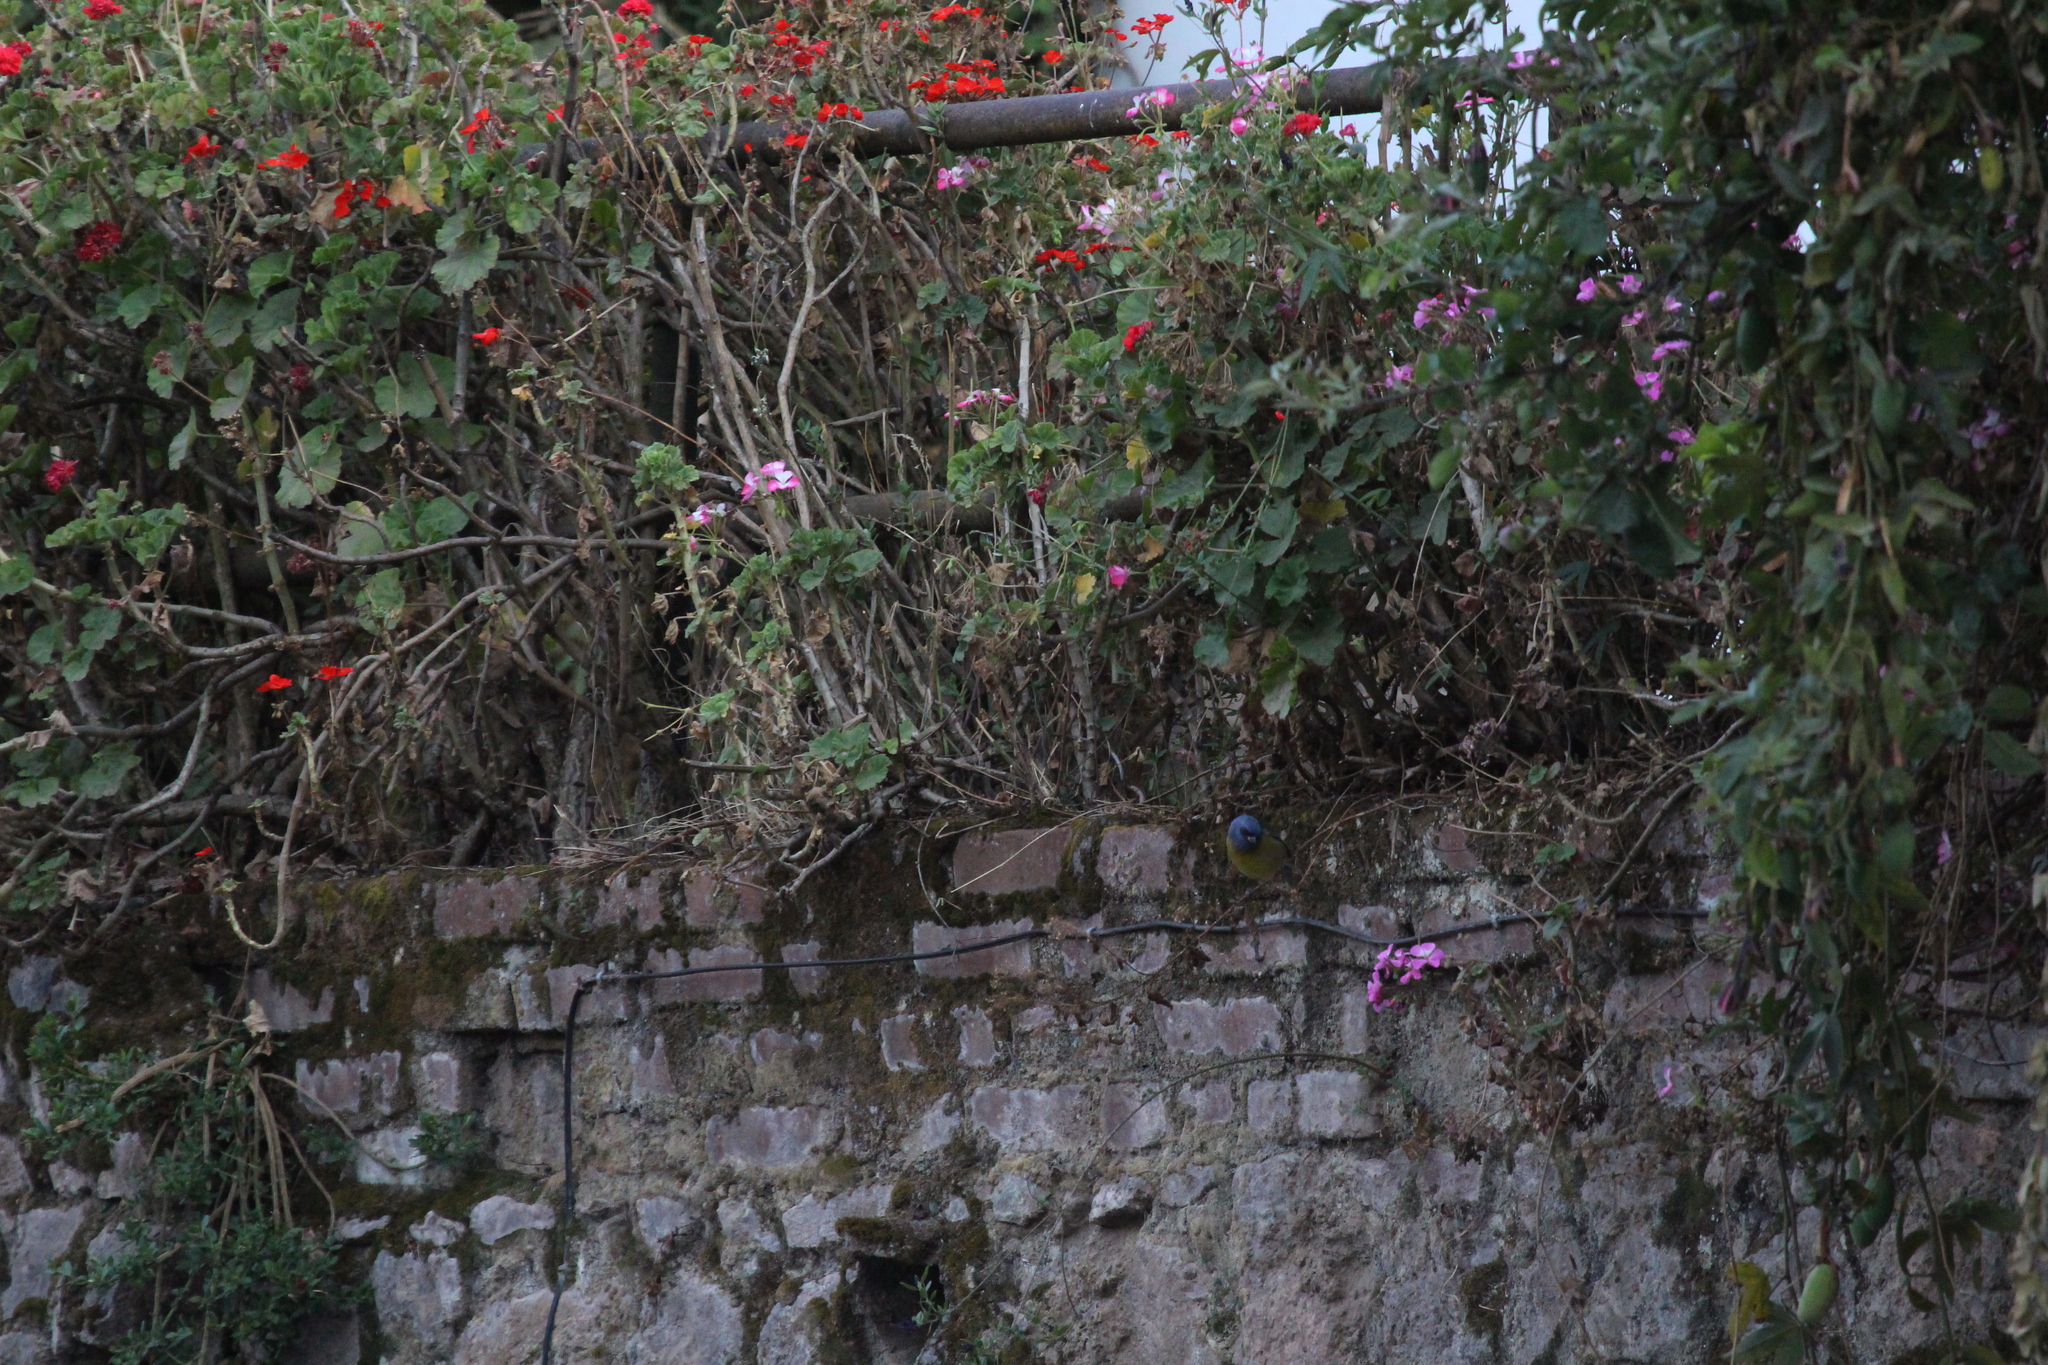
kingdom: Animalia
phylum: Chordata
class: Aves
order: Passeriformes
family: Thraupidae
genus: Rauenia
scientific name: Rauenia bonariensis
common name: Blue-and-yellow tanager
